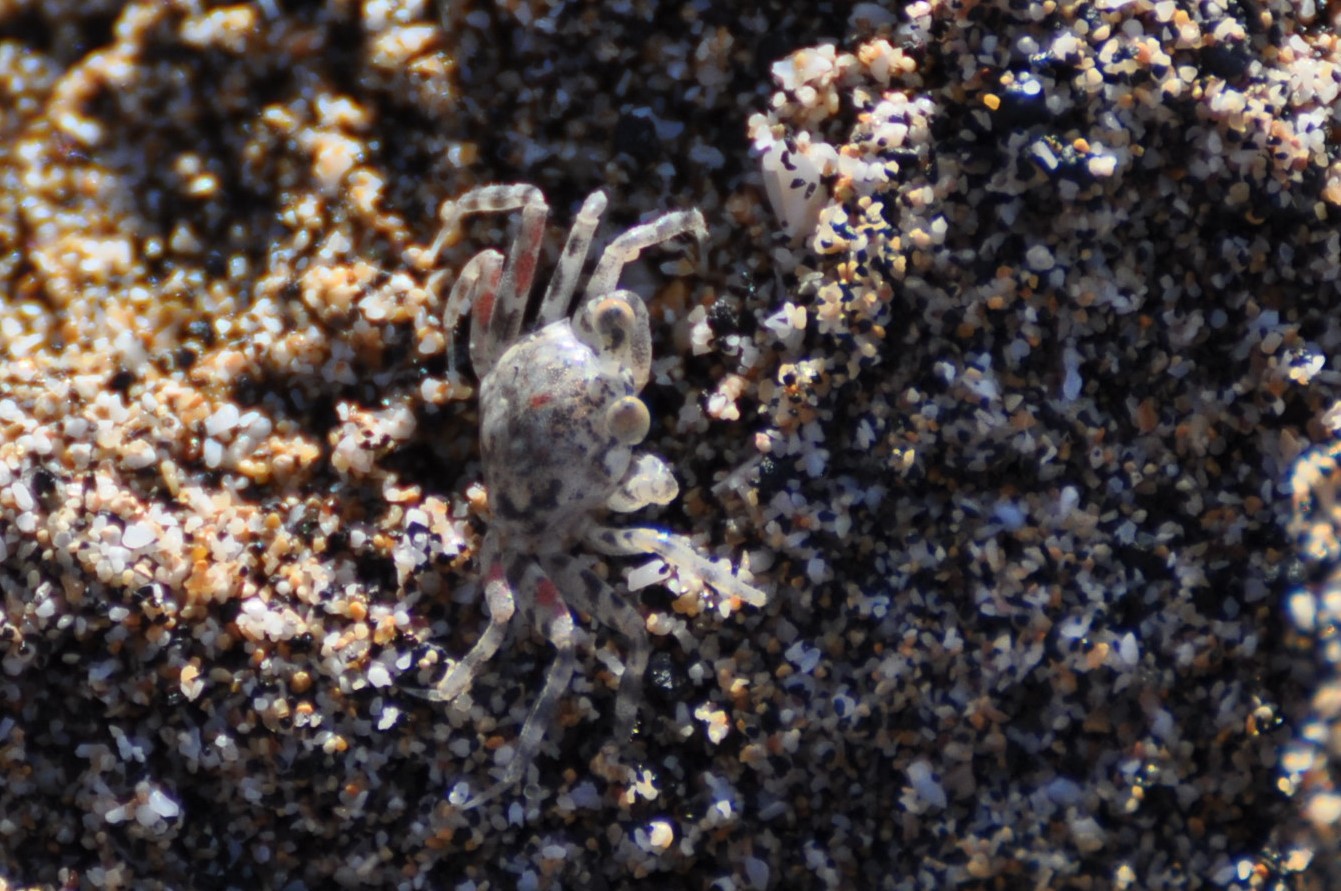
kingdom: Animalia
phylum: Arthropoda
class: Malacostraca
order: Decapoda
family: Ocypodidae
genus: Ocypode
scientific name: Ocypode pallidula
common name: Pallid ghost crab
